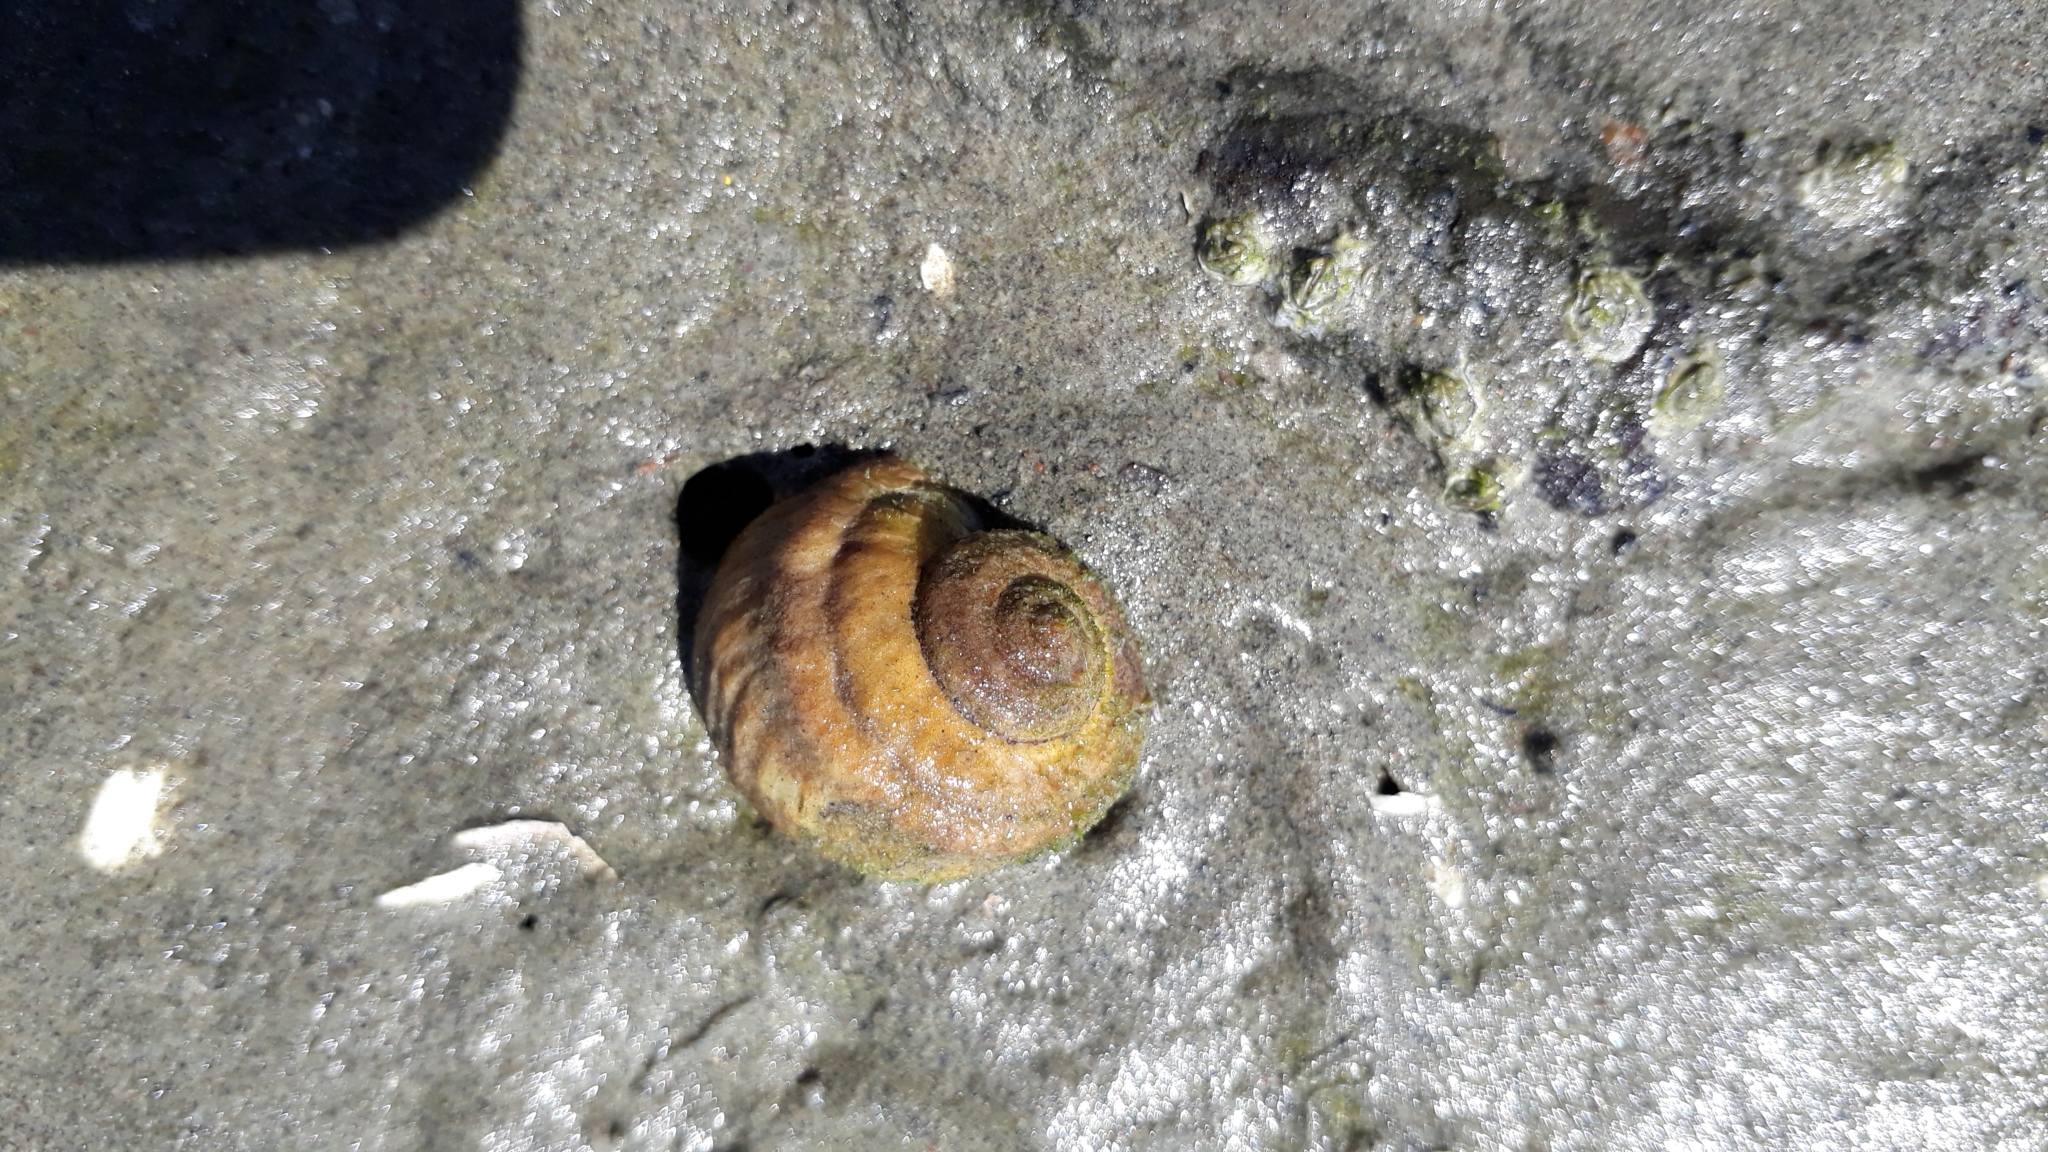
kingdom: Animalia
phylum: Mollusca
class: Gastropoda
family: Amphibolidae
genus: Amphibola
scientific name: Amphibola crenata
